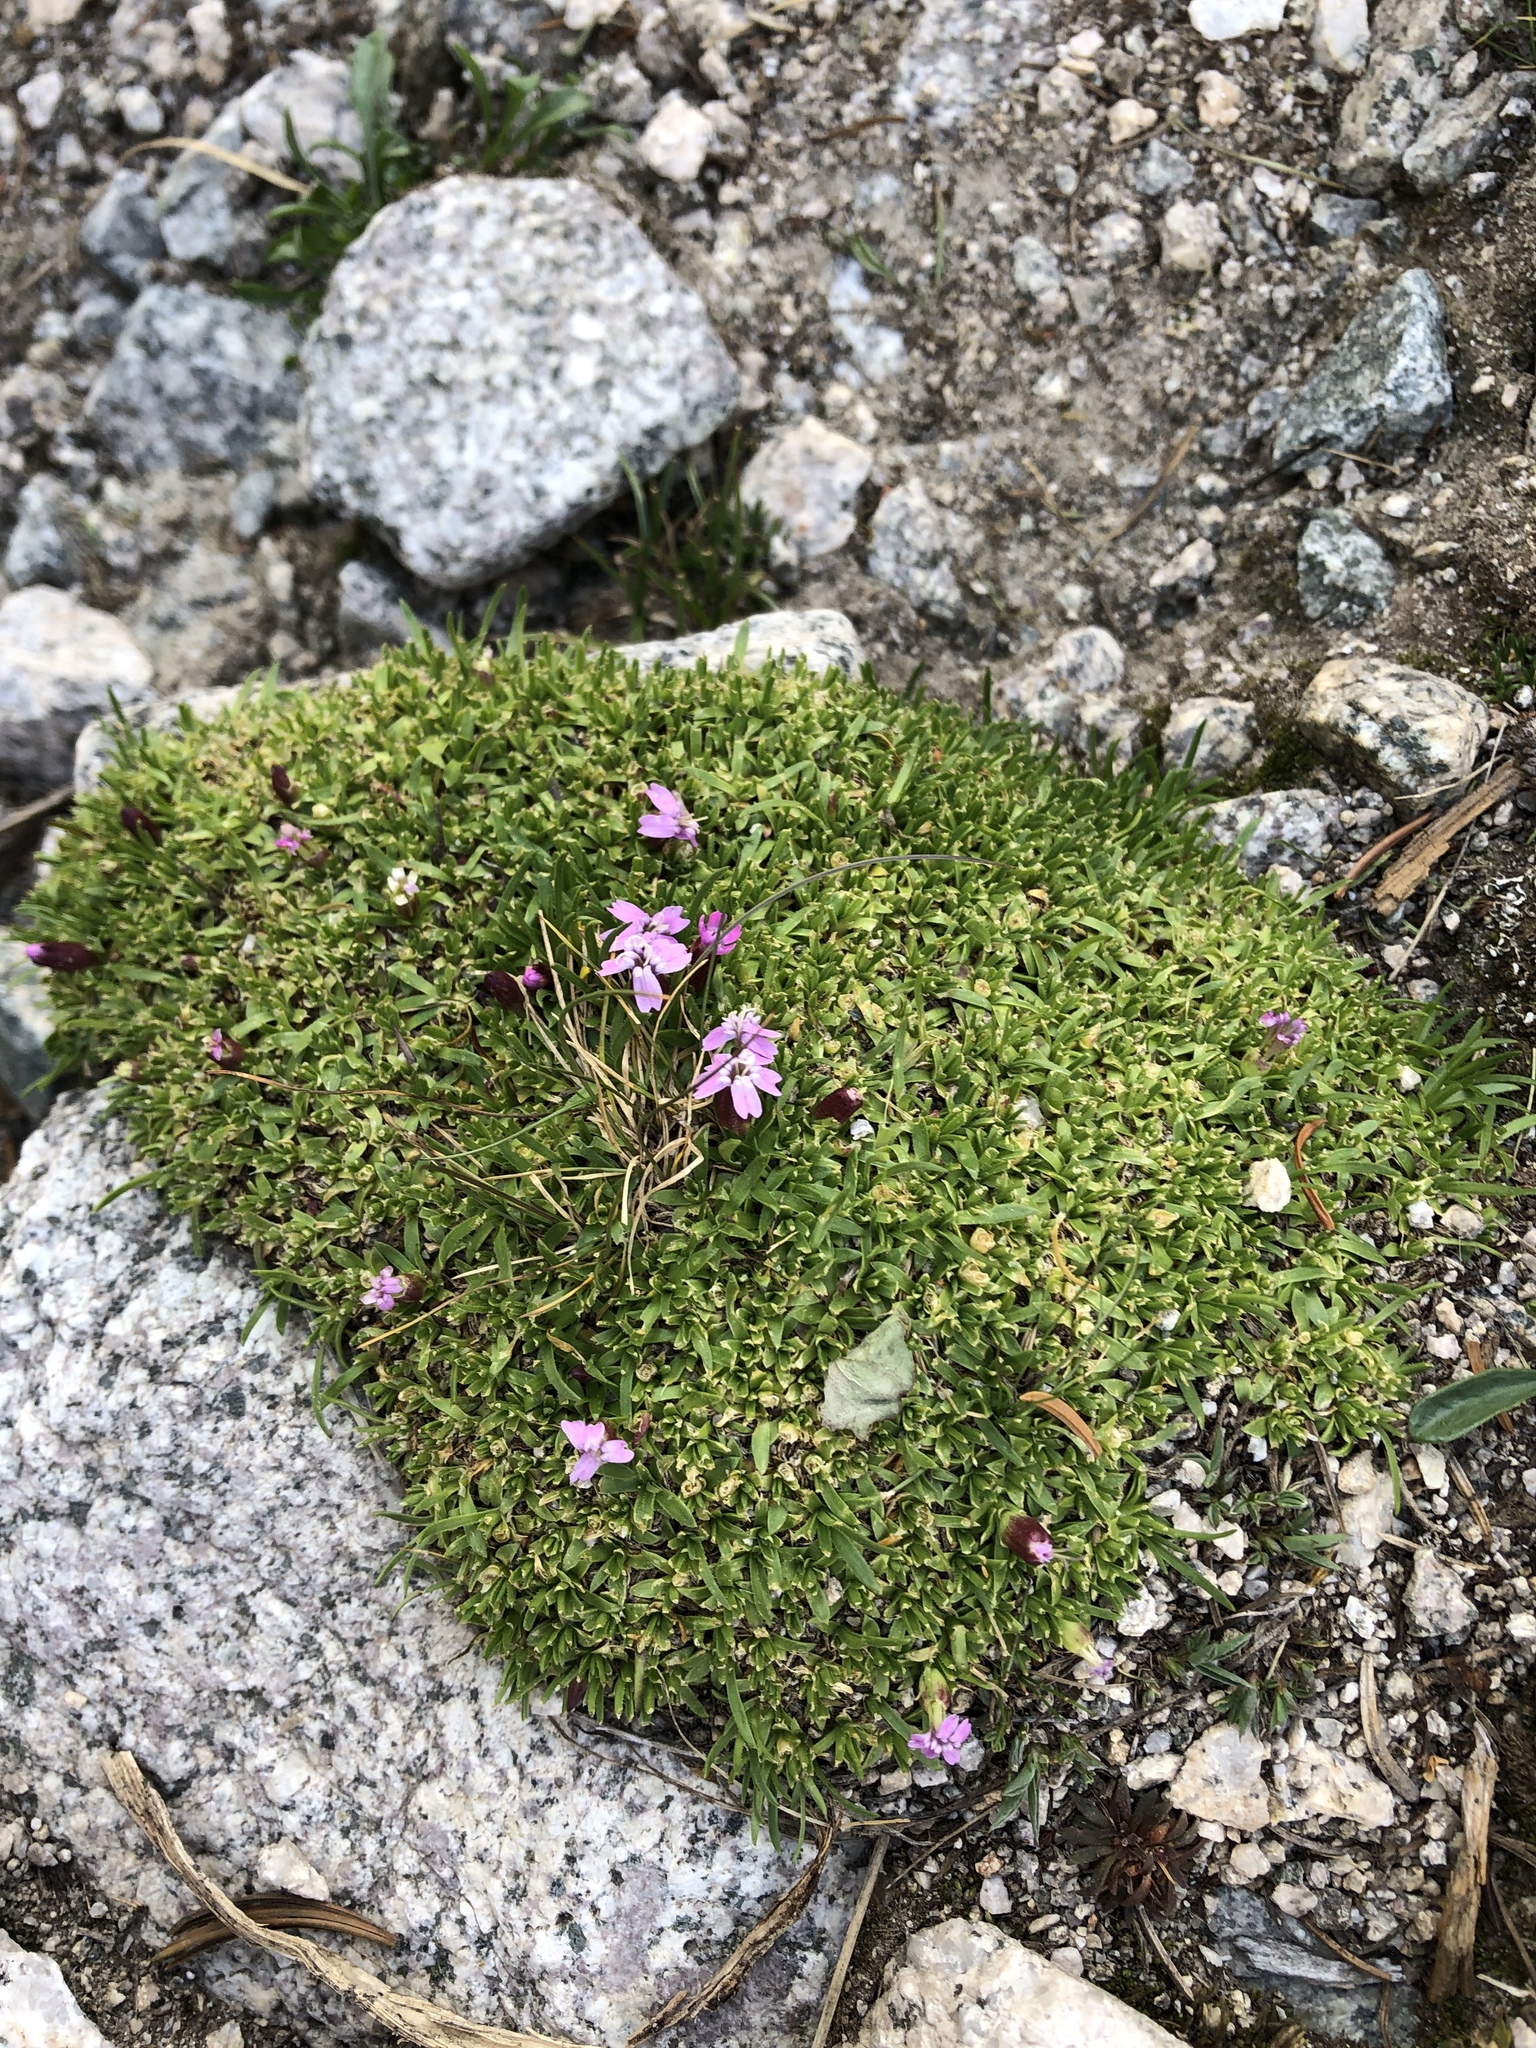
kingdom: Plantae
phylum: Tracheophyta
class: Magnoliopsida
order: Caryophyllales
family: Caryophyllaceae
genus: Silene
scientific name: Silene acaulis
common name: Moss campion
